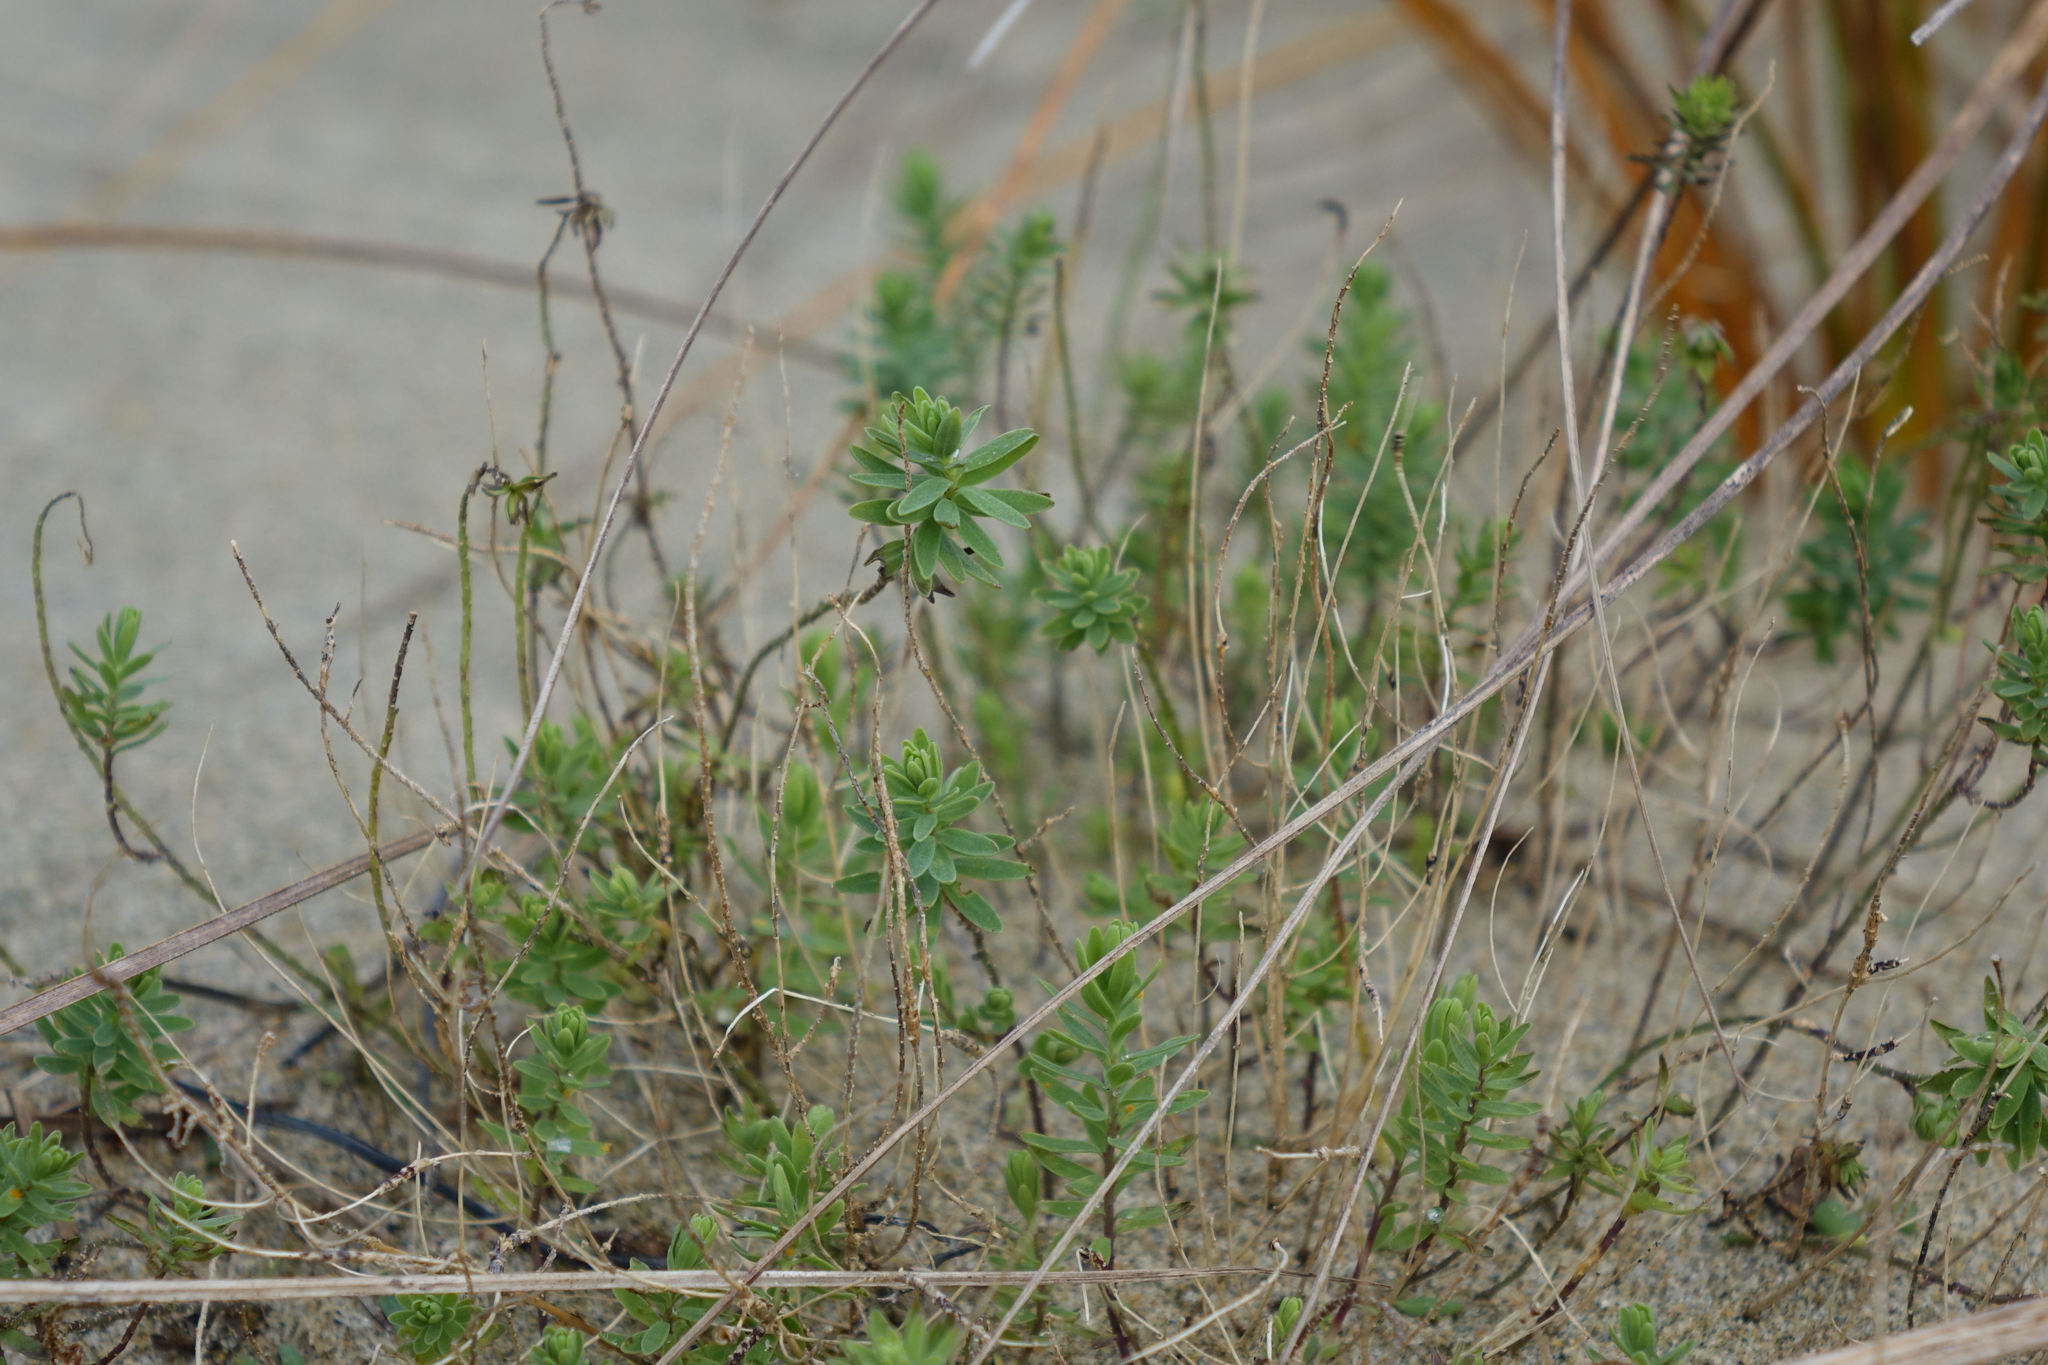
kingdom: Plantae
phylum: Tracheophyta
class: Magnoliopsida
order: Malpighiales
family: Linaceae
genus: Linum
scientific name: Linum monogynum
